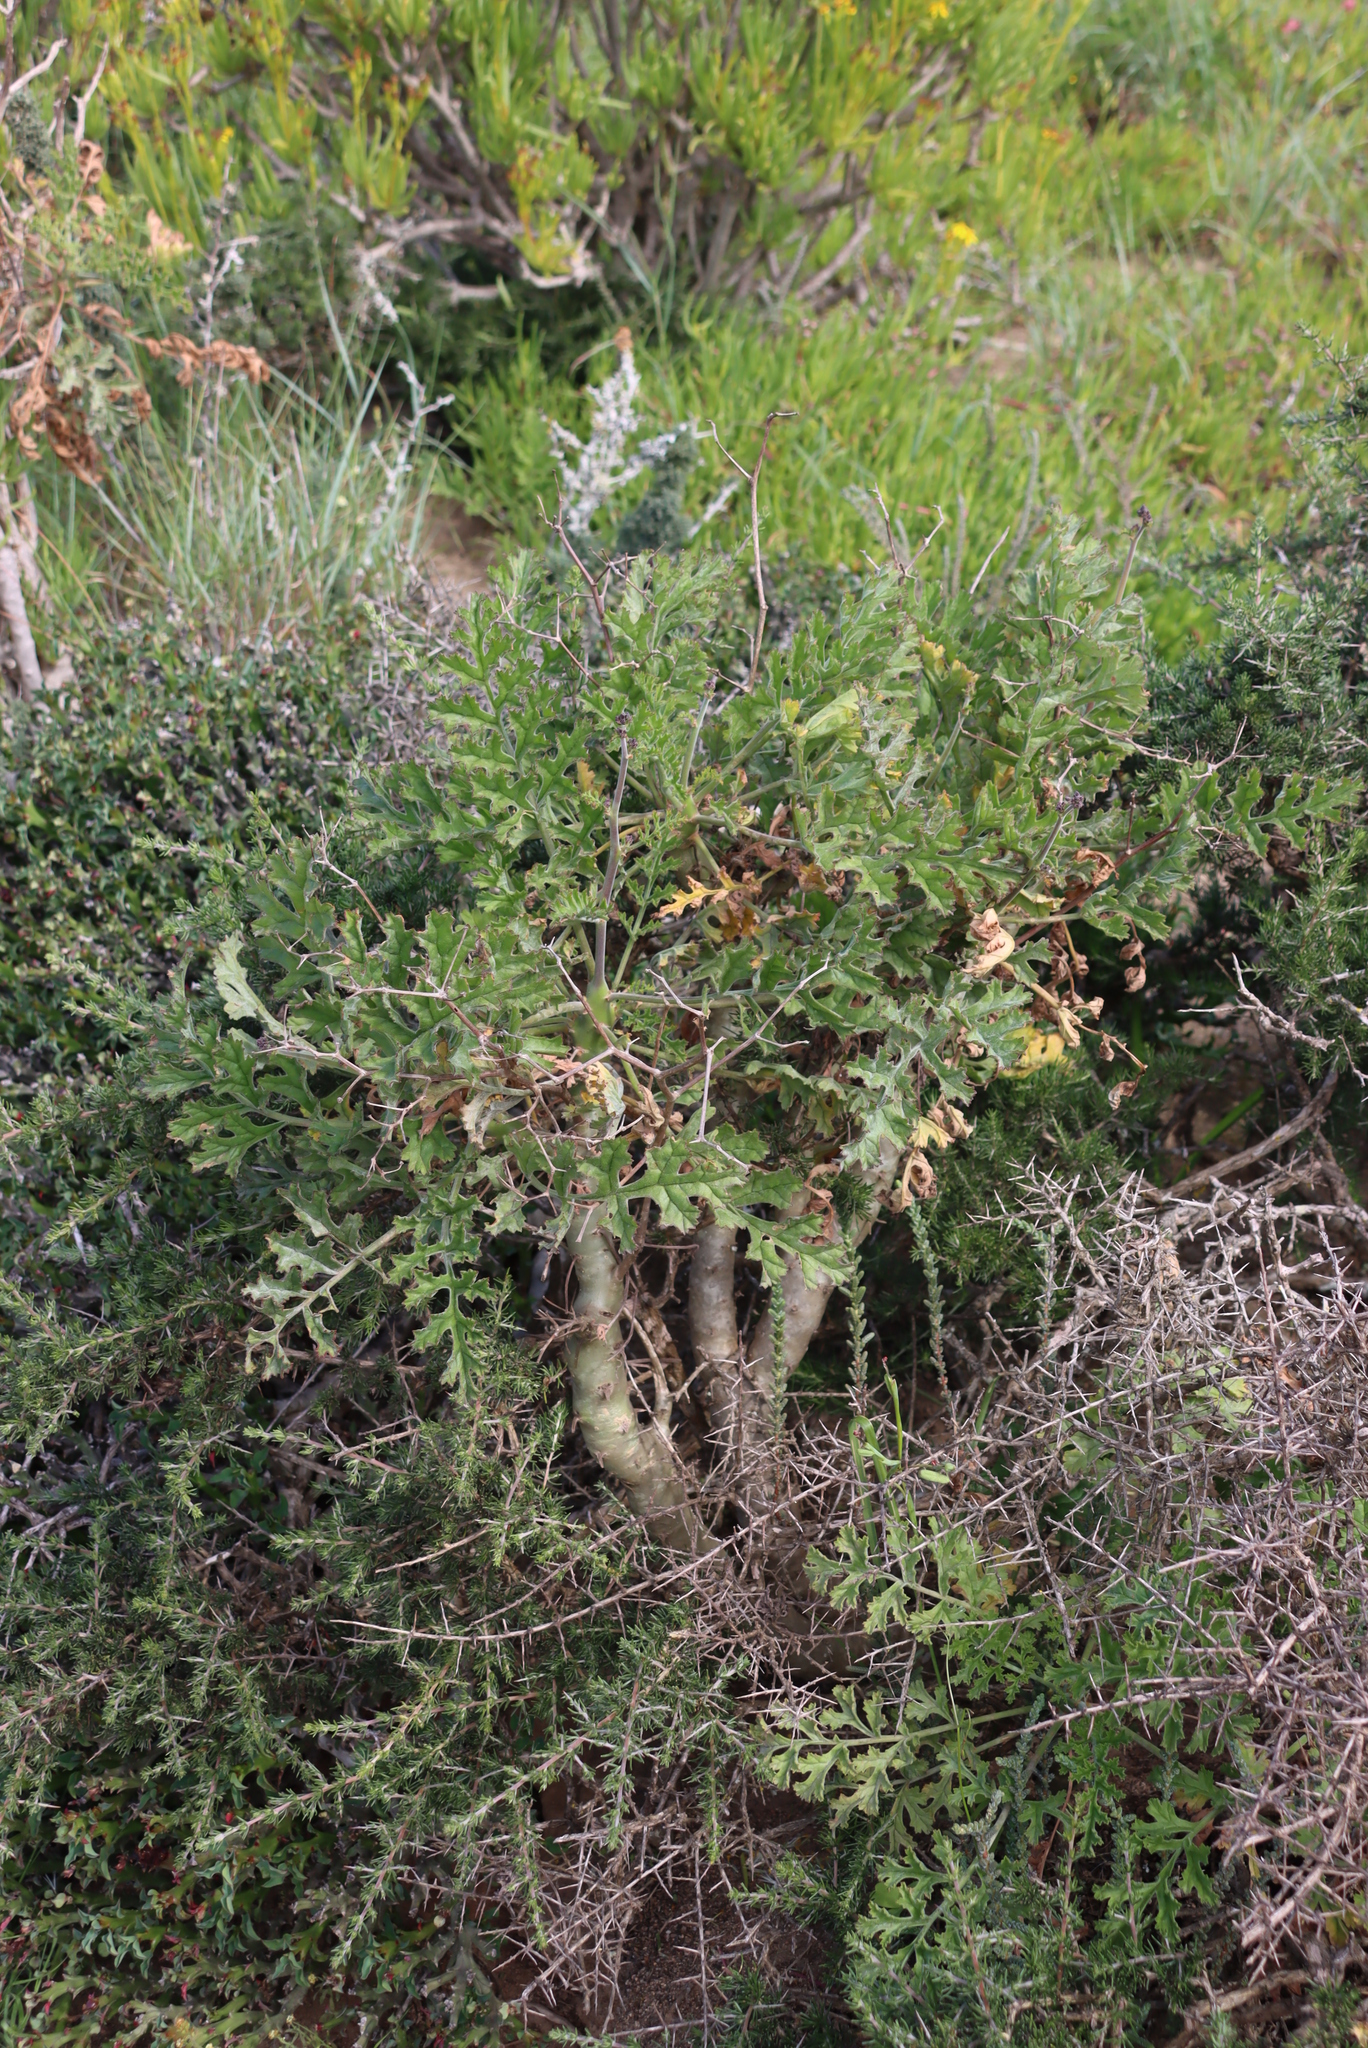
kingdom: Plantae
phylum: Tracheophyta
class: Magnoliopsida
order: Geraniales
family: Geraniaceae
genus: Pelargonium
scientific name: Pelargonium carnosum
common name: Fleshy-stalk pelargonium
